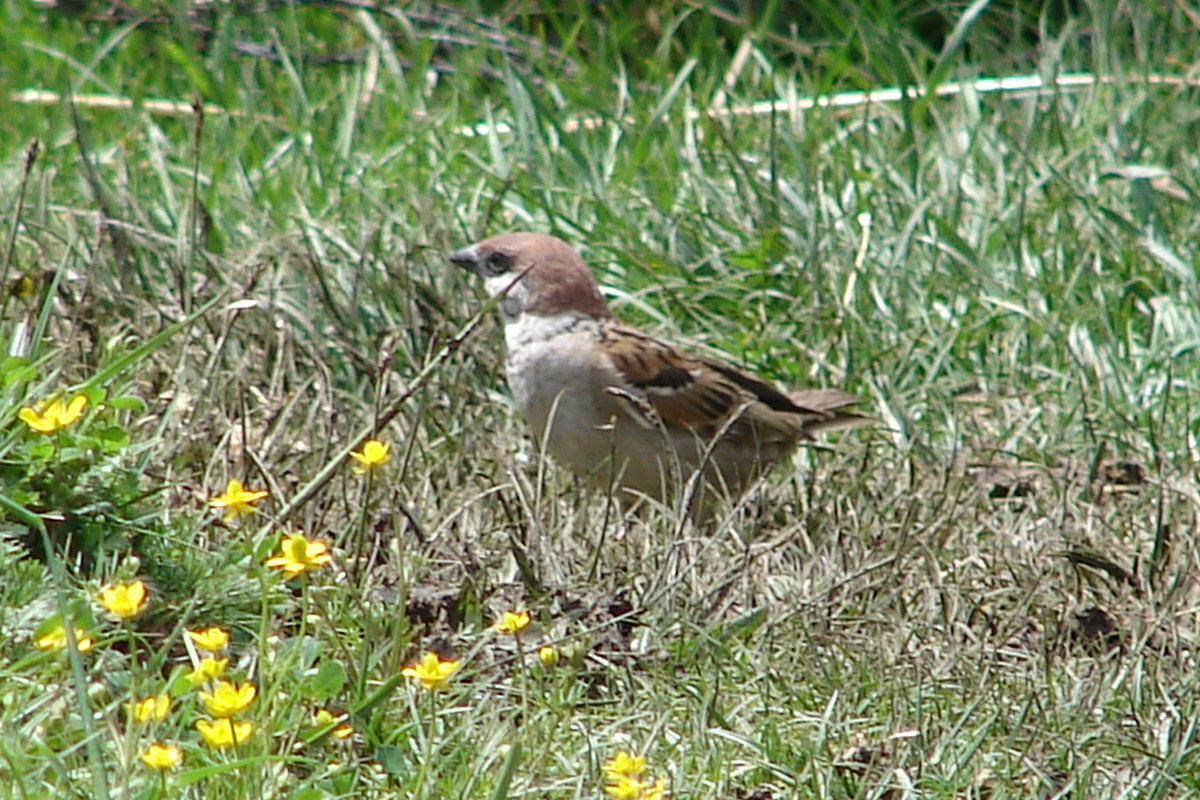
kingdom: Animalia
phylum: Chordata
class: Aves
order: Passeriformes
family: Passeridae
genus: Passer
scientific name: Passer montanus
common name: Eurasian tree sparrow
